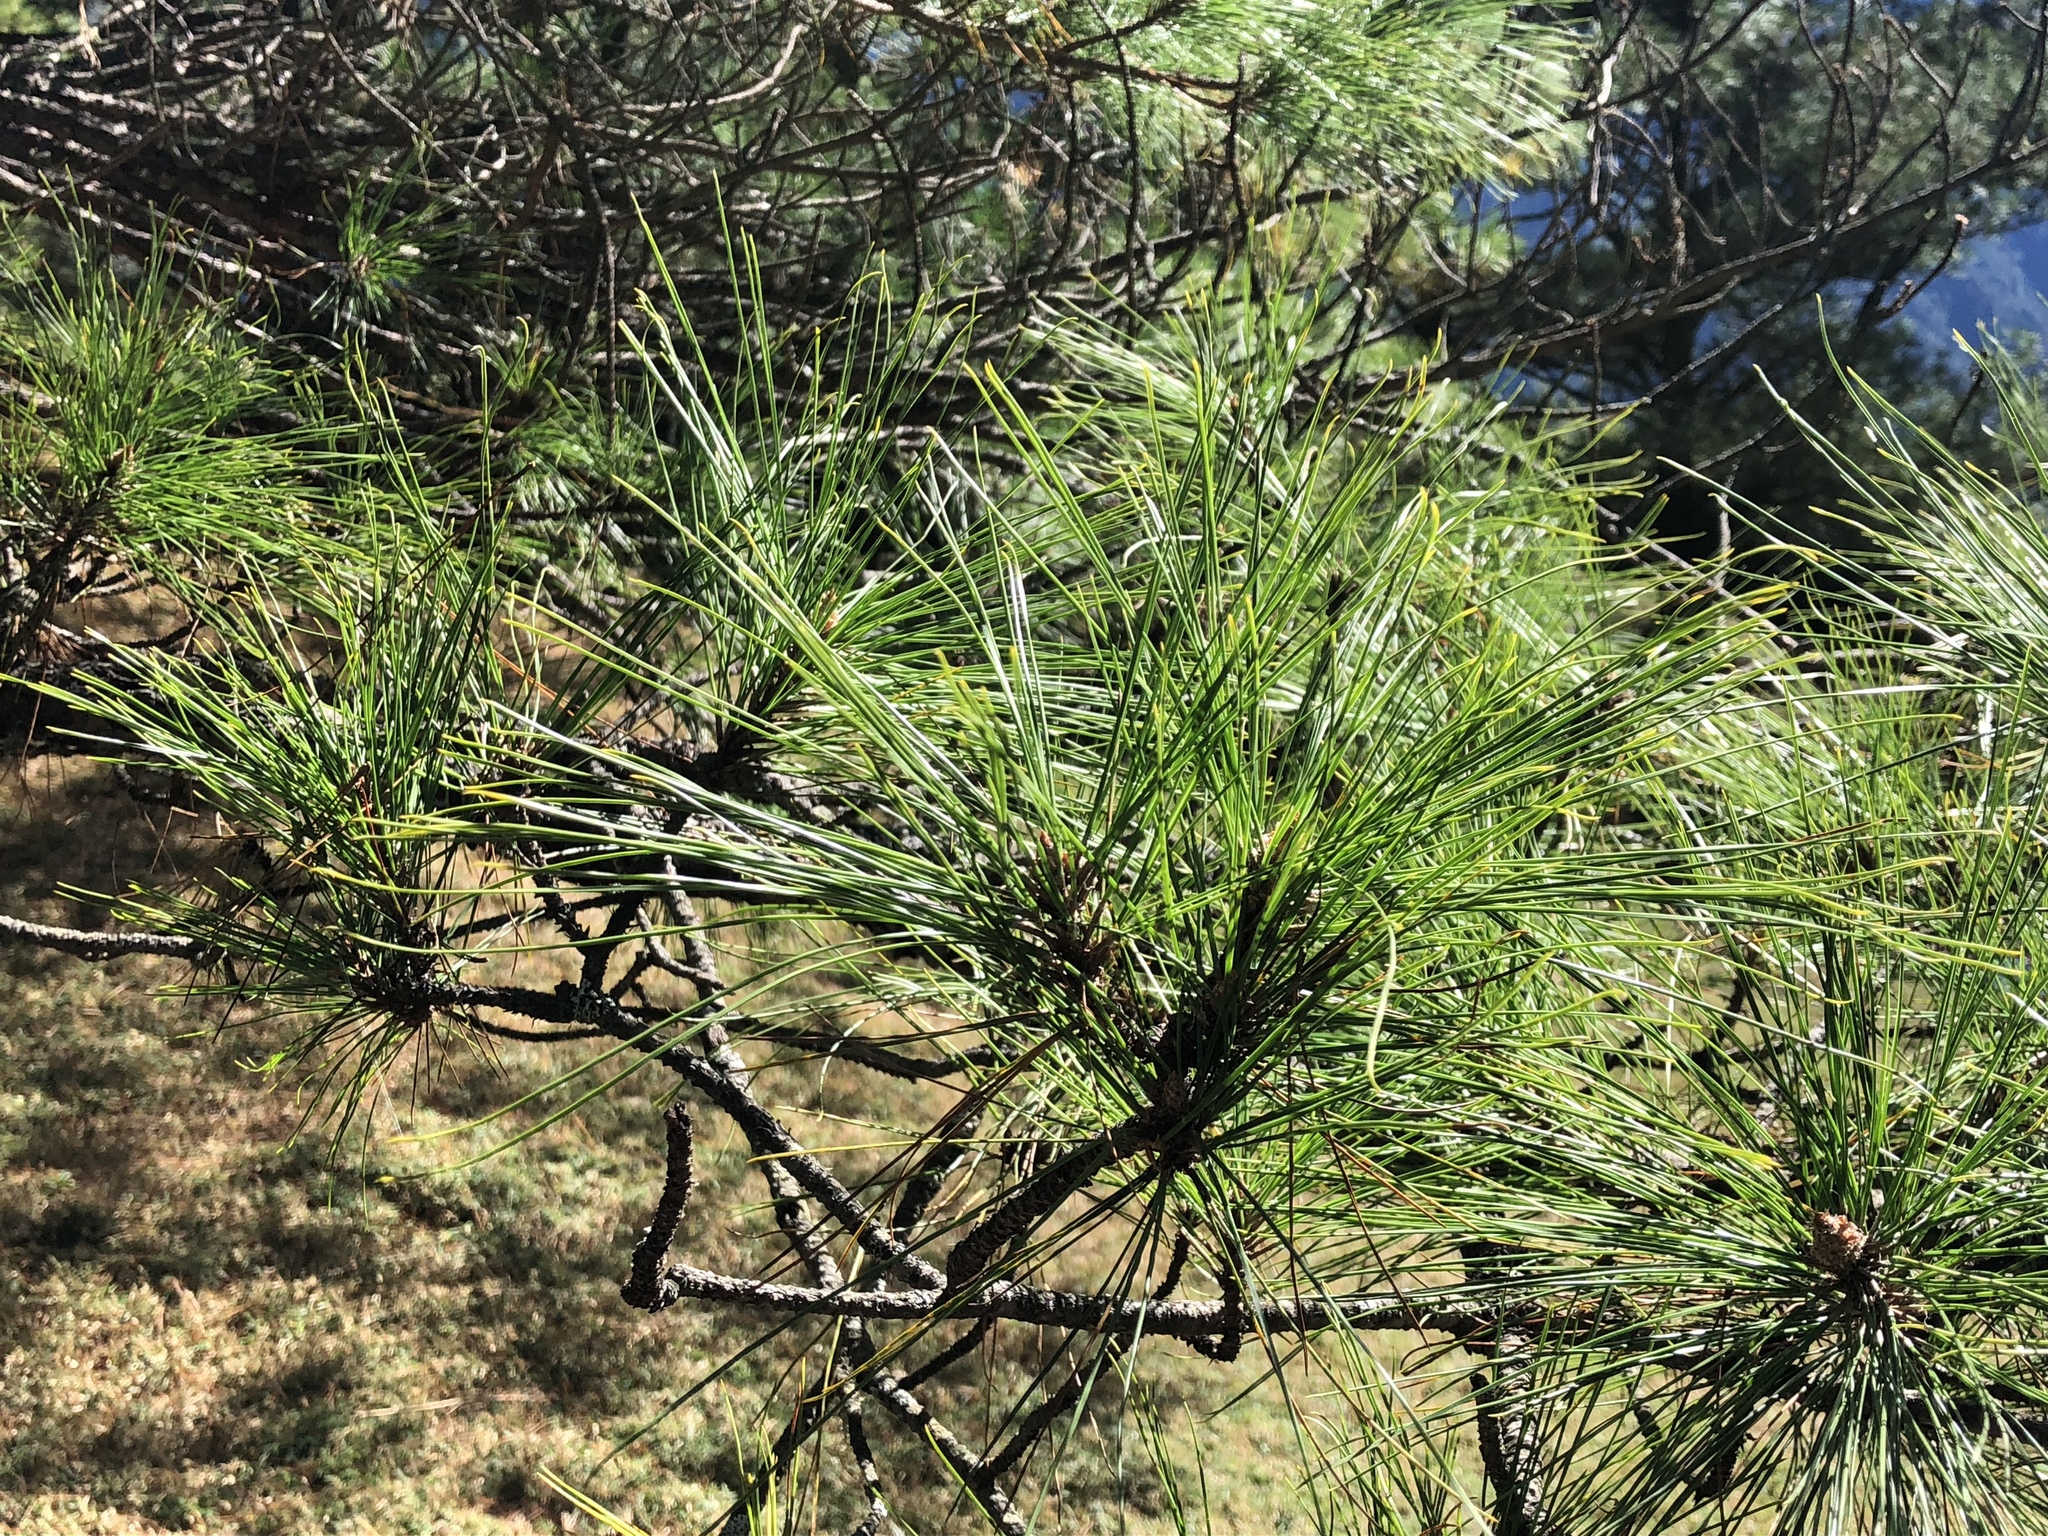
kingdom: Plantae
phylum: Tracheophyta
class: Pinopsida
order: Pinales
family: Pinaceae
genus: Pinus
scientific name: Pinus taiwanensis
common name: Formosa pine
